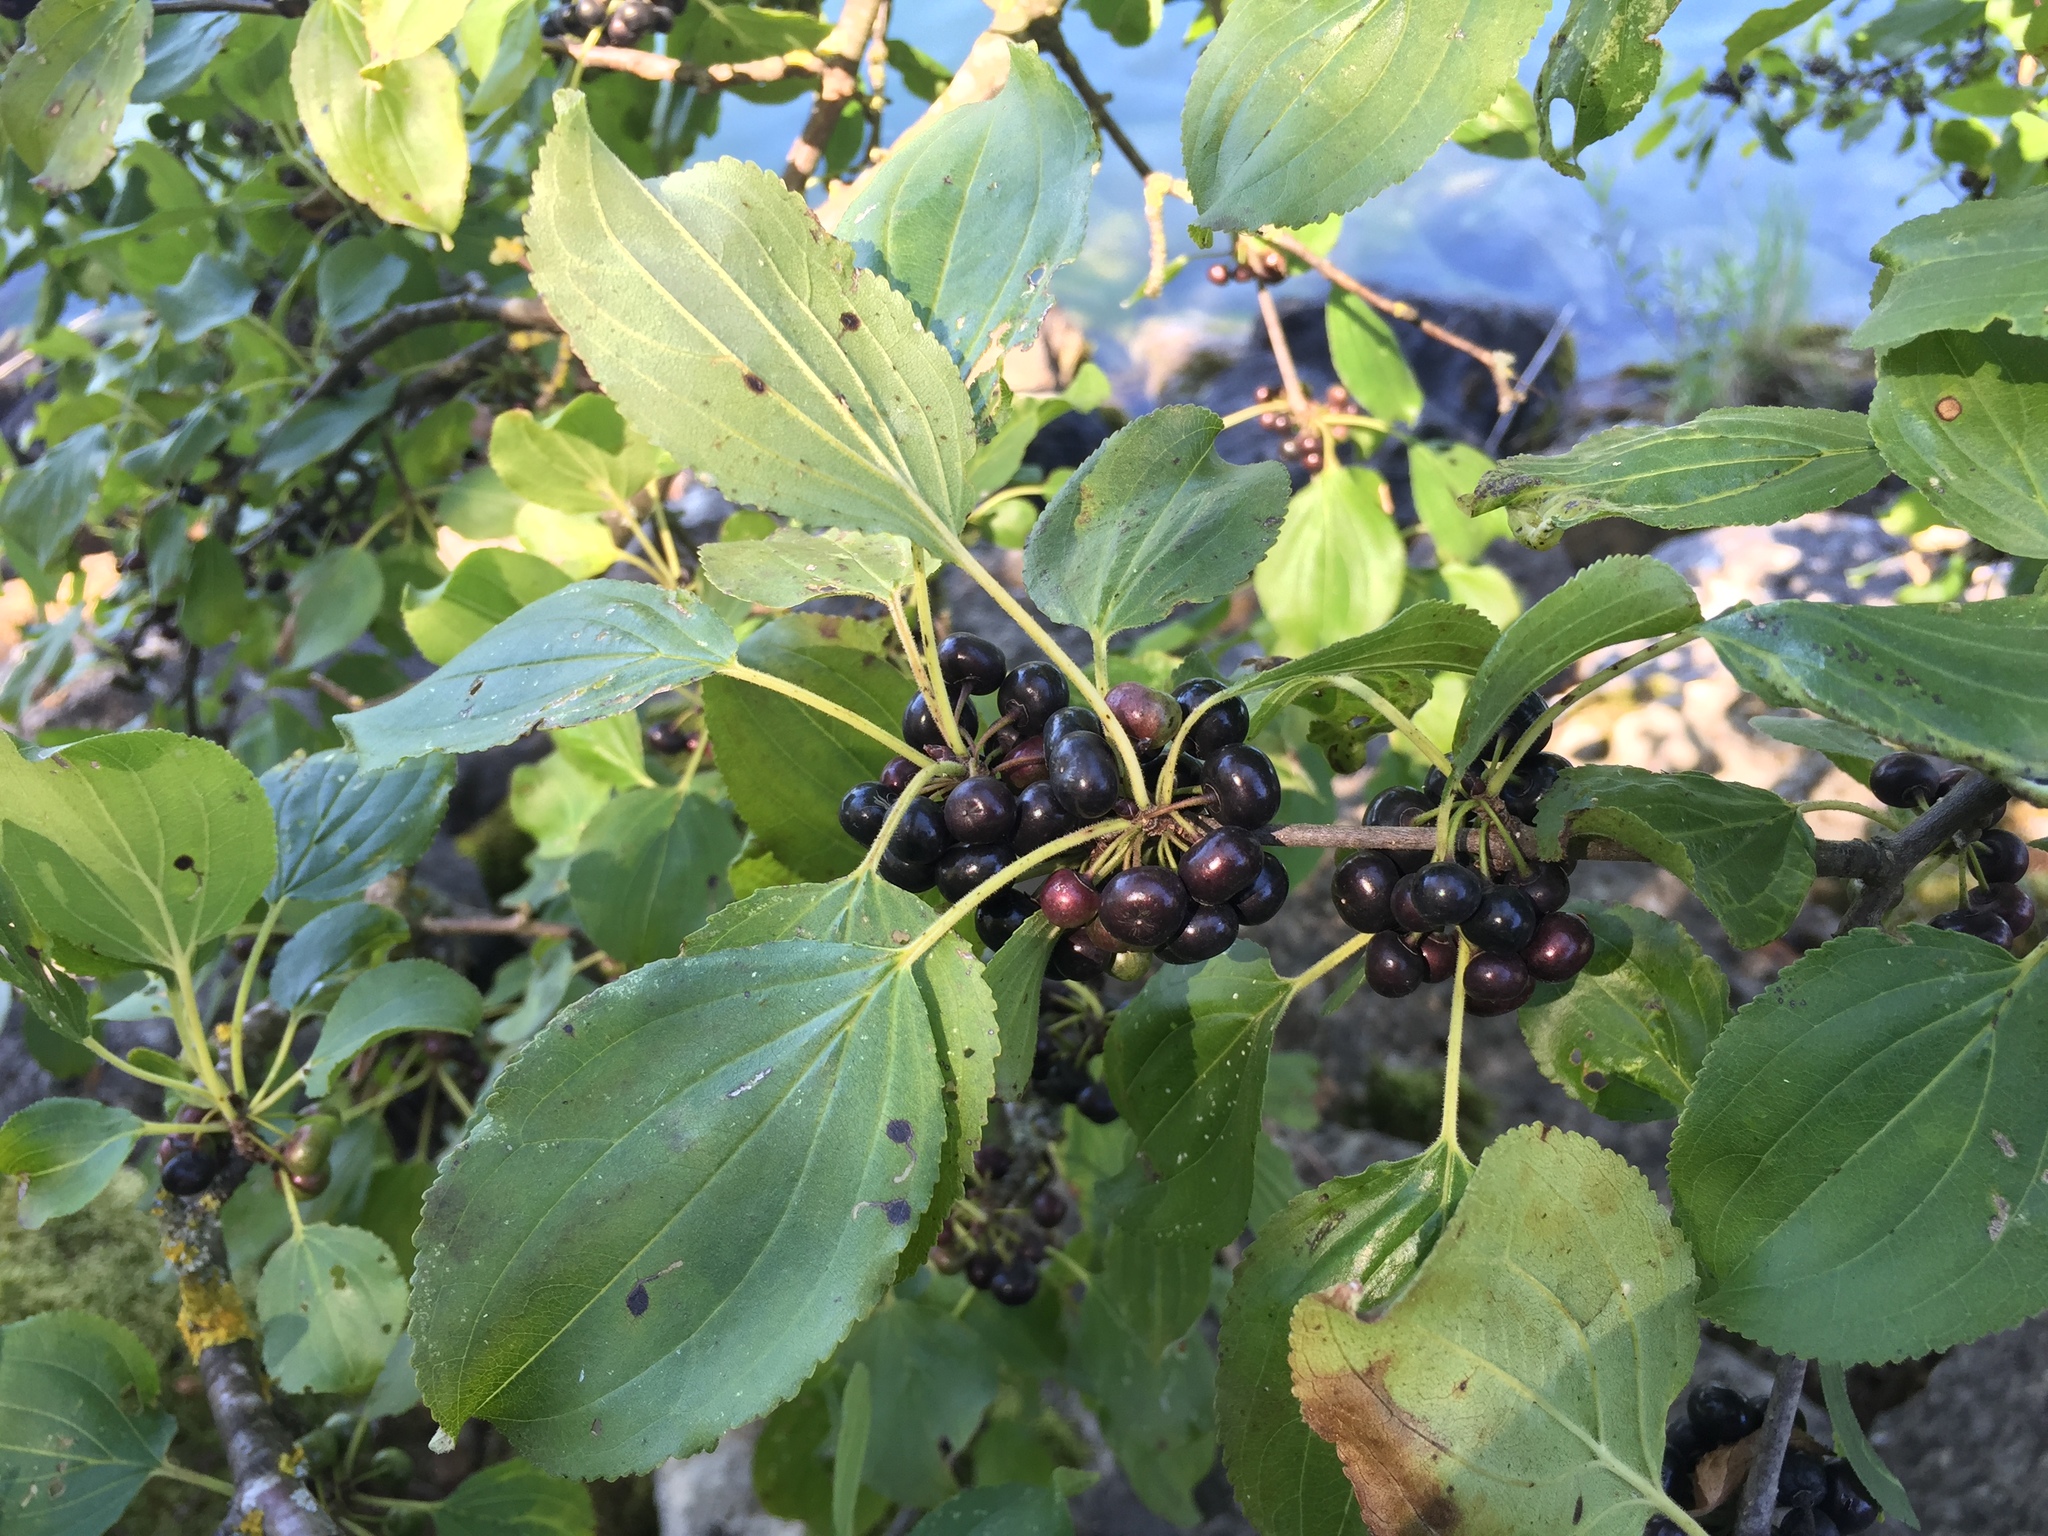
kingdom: Plantae
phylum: Tracheophyta
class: Magnoliopsida
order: Rosales
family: Rhamnaceae
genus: Rhamnus
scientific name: Rhamnus cathartica
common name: Common buckthorn
